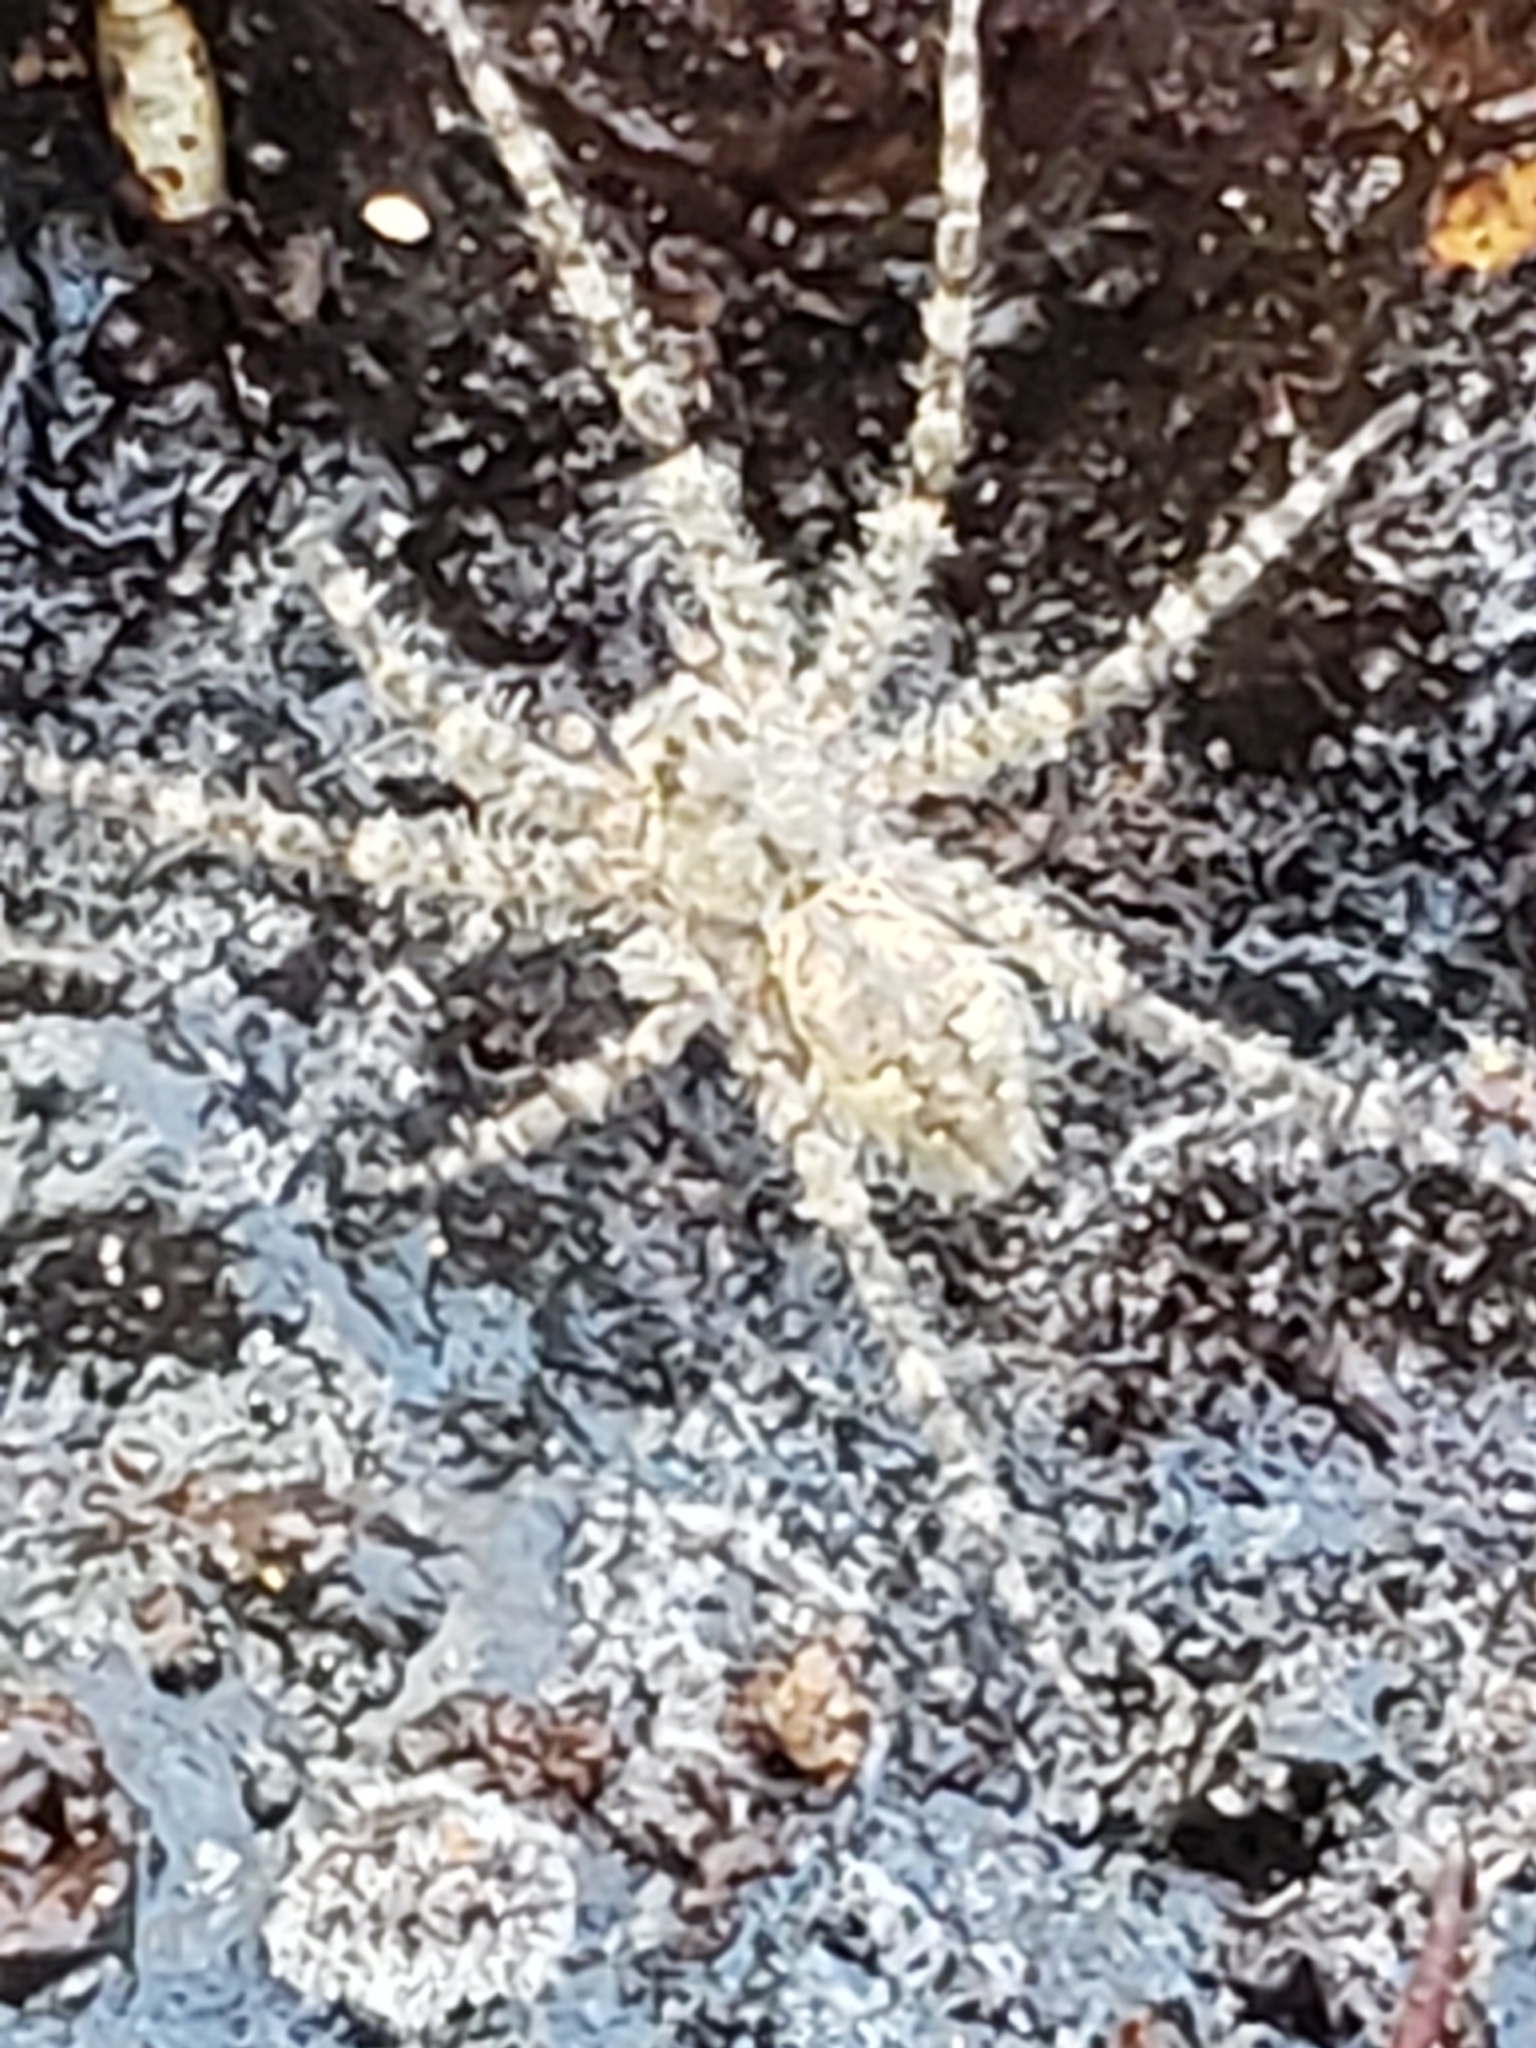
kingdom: Animalia
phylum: Arthropoda
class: Arachnida
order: Araneae
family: Pisauridae
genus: Dolomedes
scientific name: Dolomedes albineus
